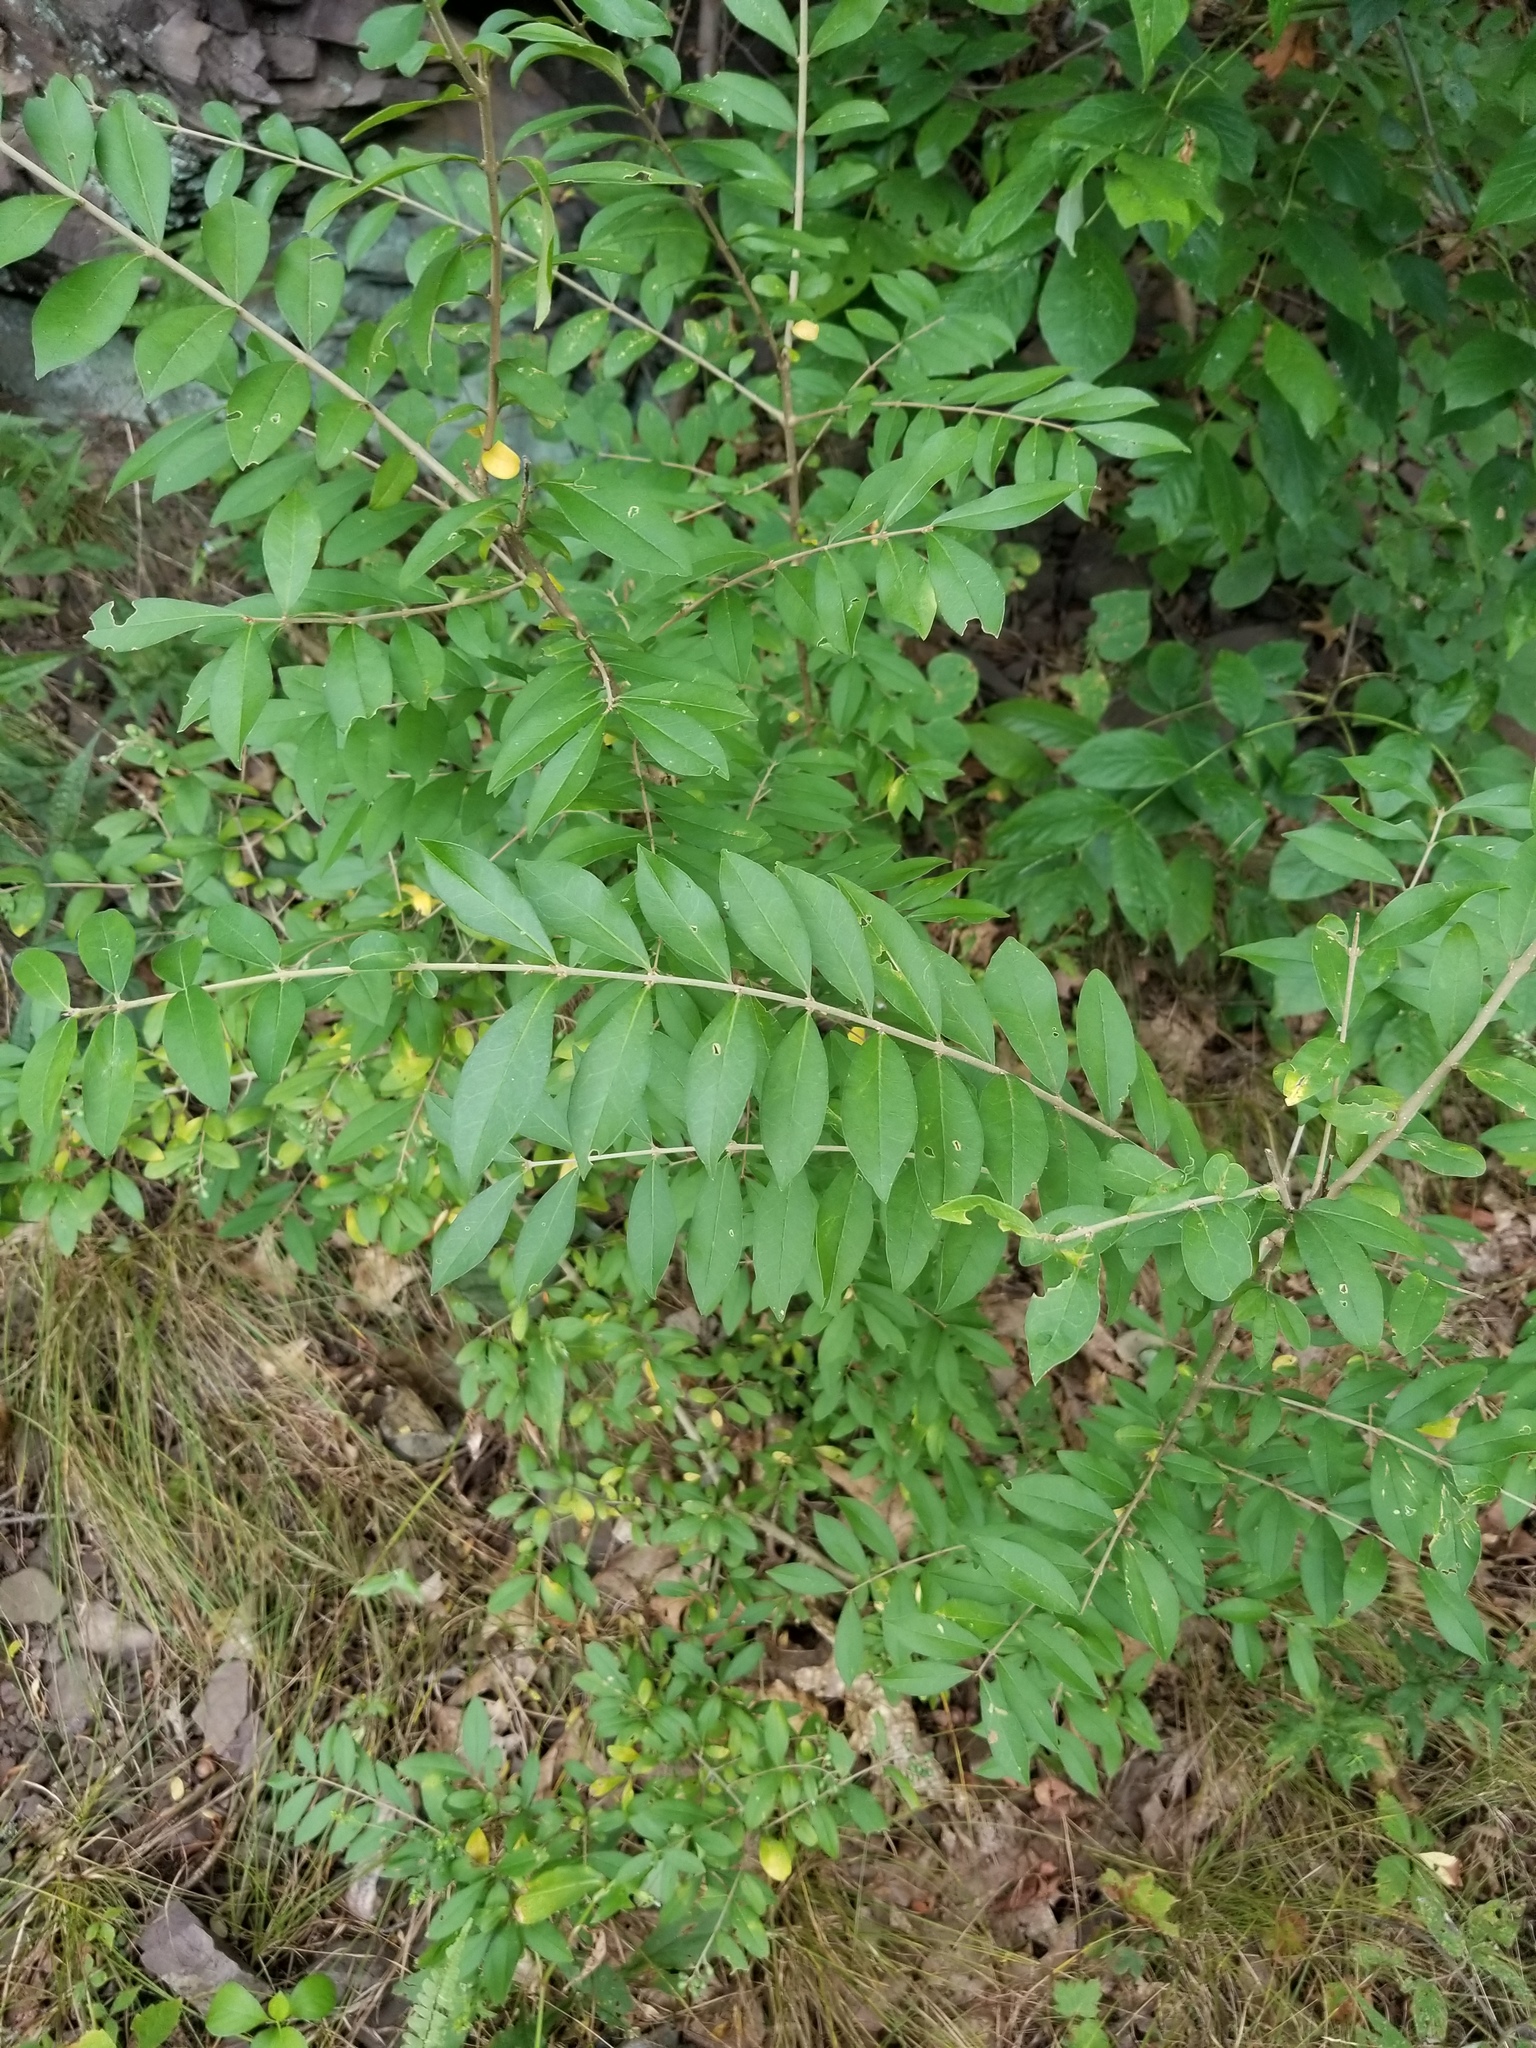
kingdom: Plantae
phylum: Tracheophyta
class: Magnoliopsida
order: Lamiales
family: Oleaceae
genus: Ligustrum
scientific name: Ligustrum
